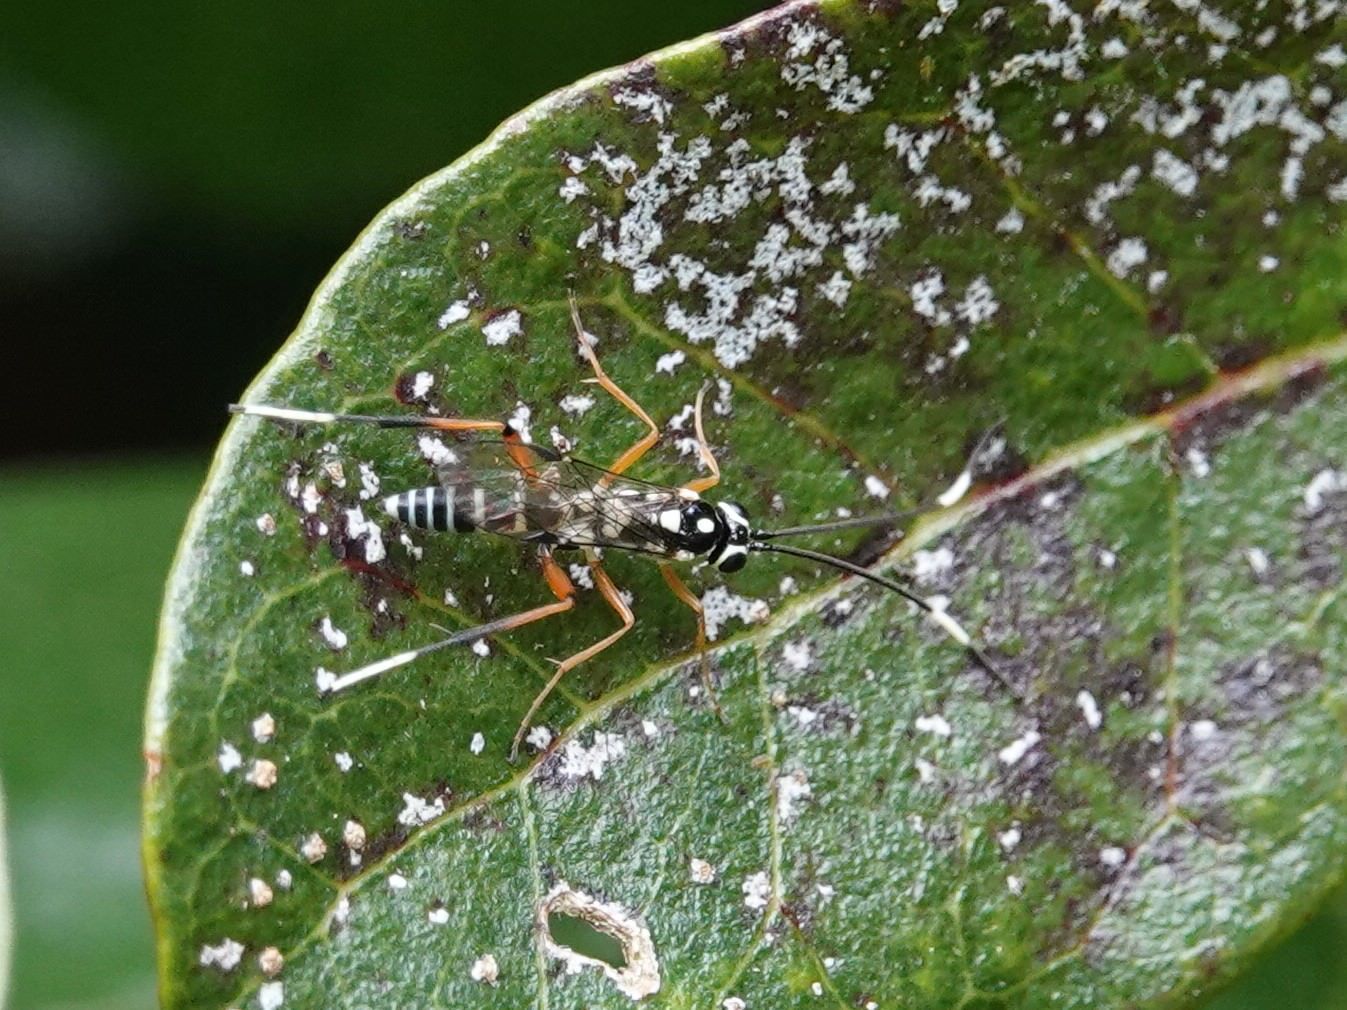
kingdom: Animalia
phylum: Arthropoda
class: Insecta
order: Hymenoptera
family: Ichneumonidae
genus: Glabridorsum
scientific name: Glabridorsum stokesii
